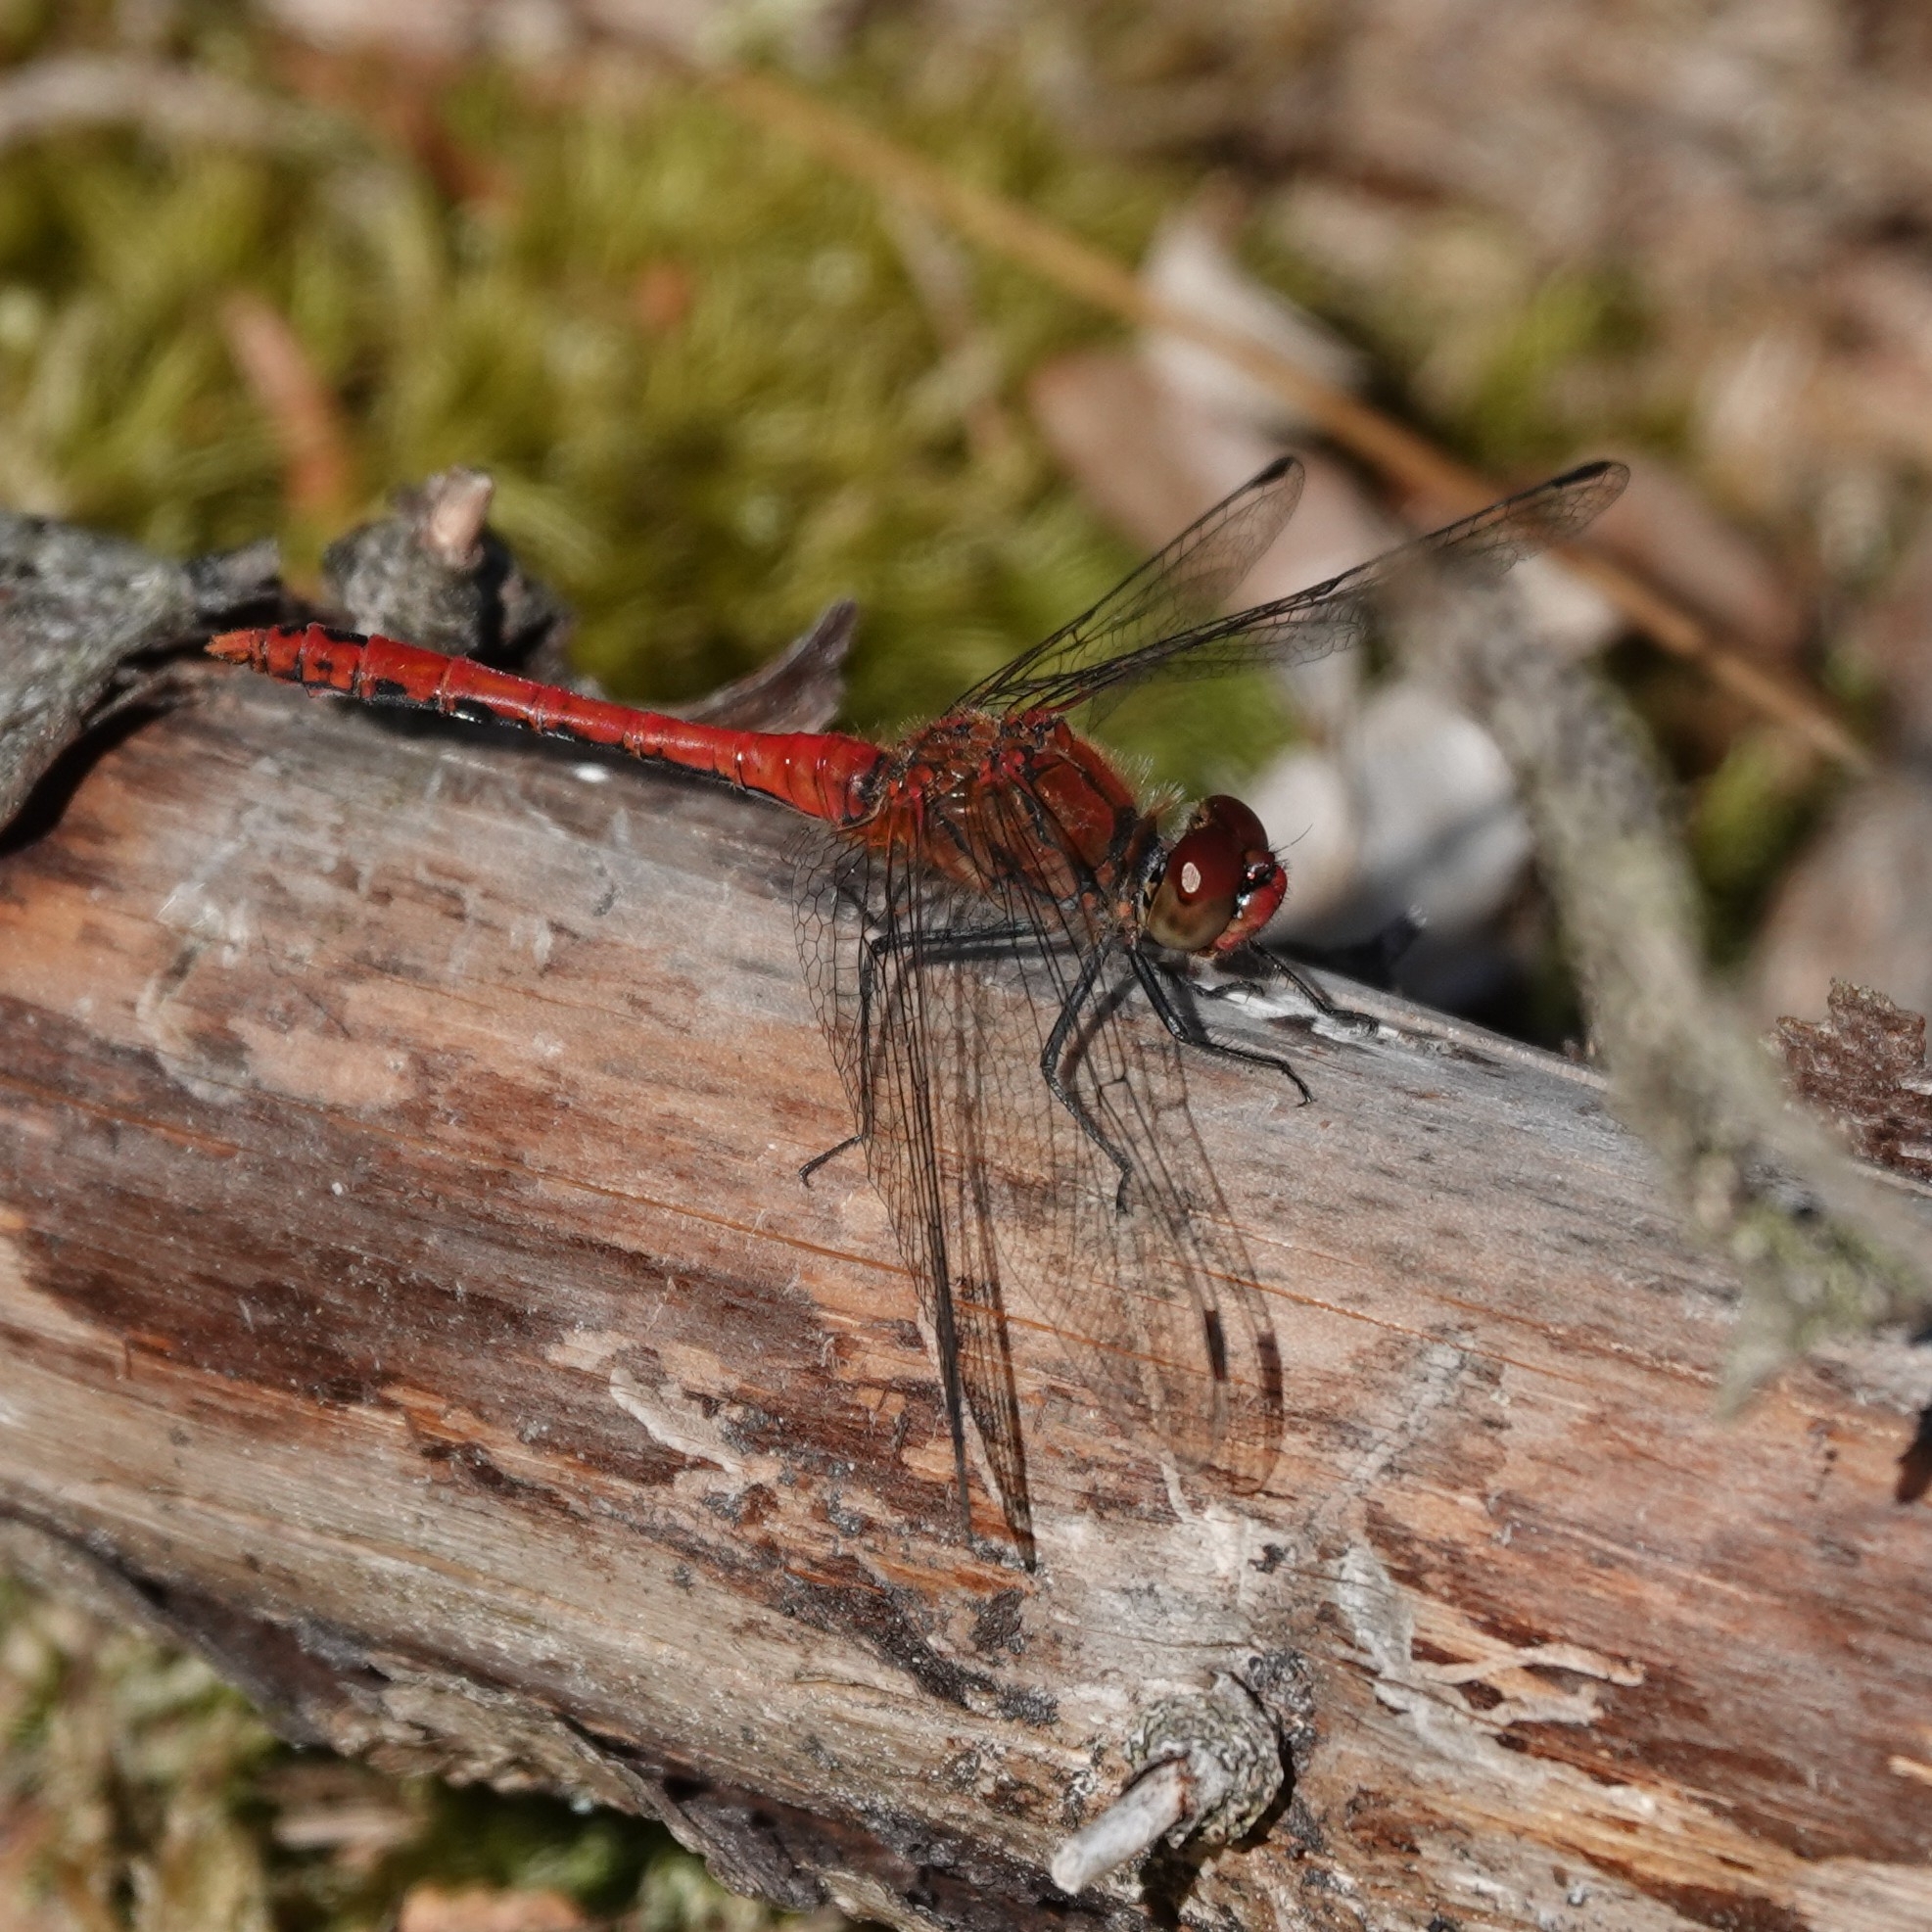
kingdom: Animalia
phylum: Arthropoda
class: Insecta
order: Odonata
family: Libellulidae
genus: Sympetrum
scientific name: Sympetrum sanguineum
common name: Ruddy darter
